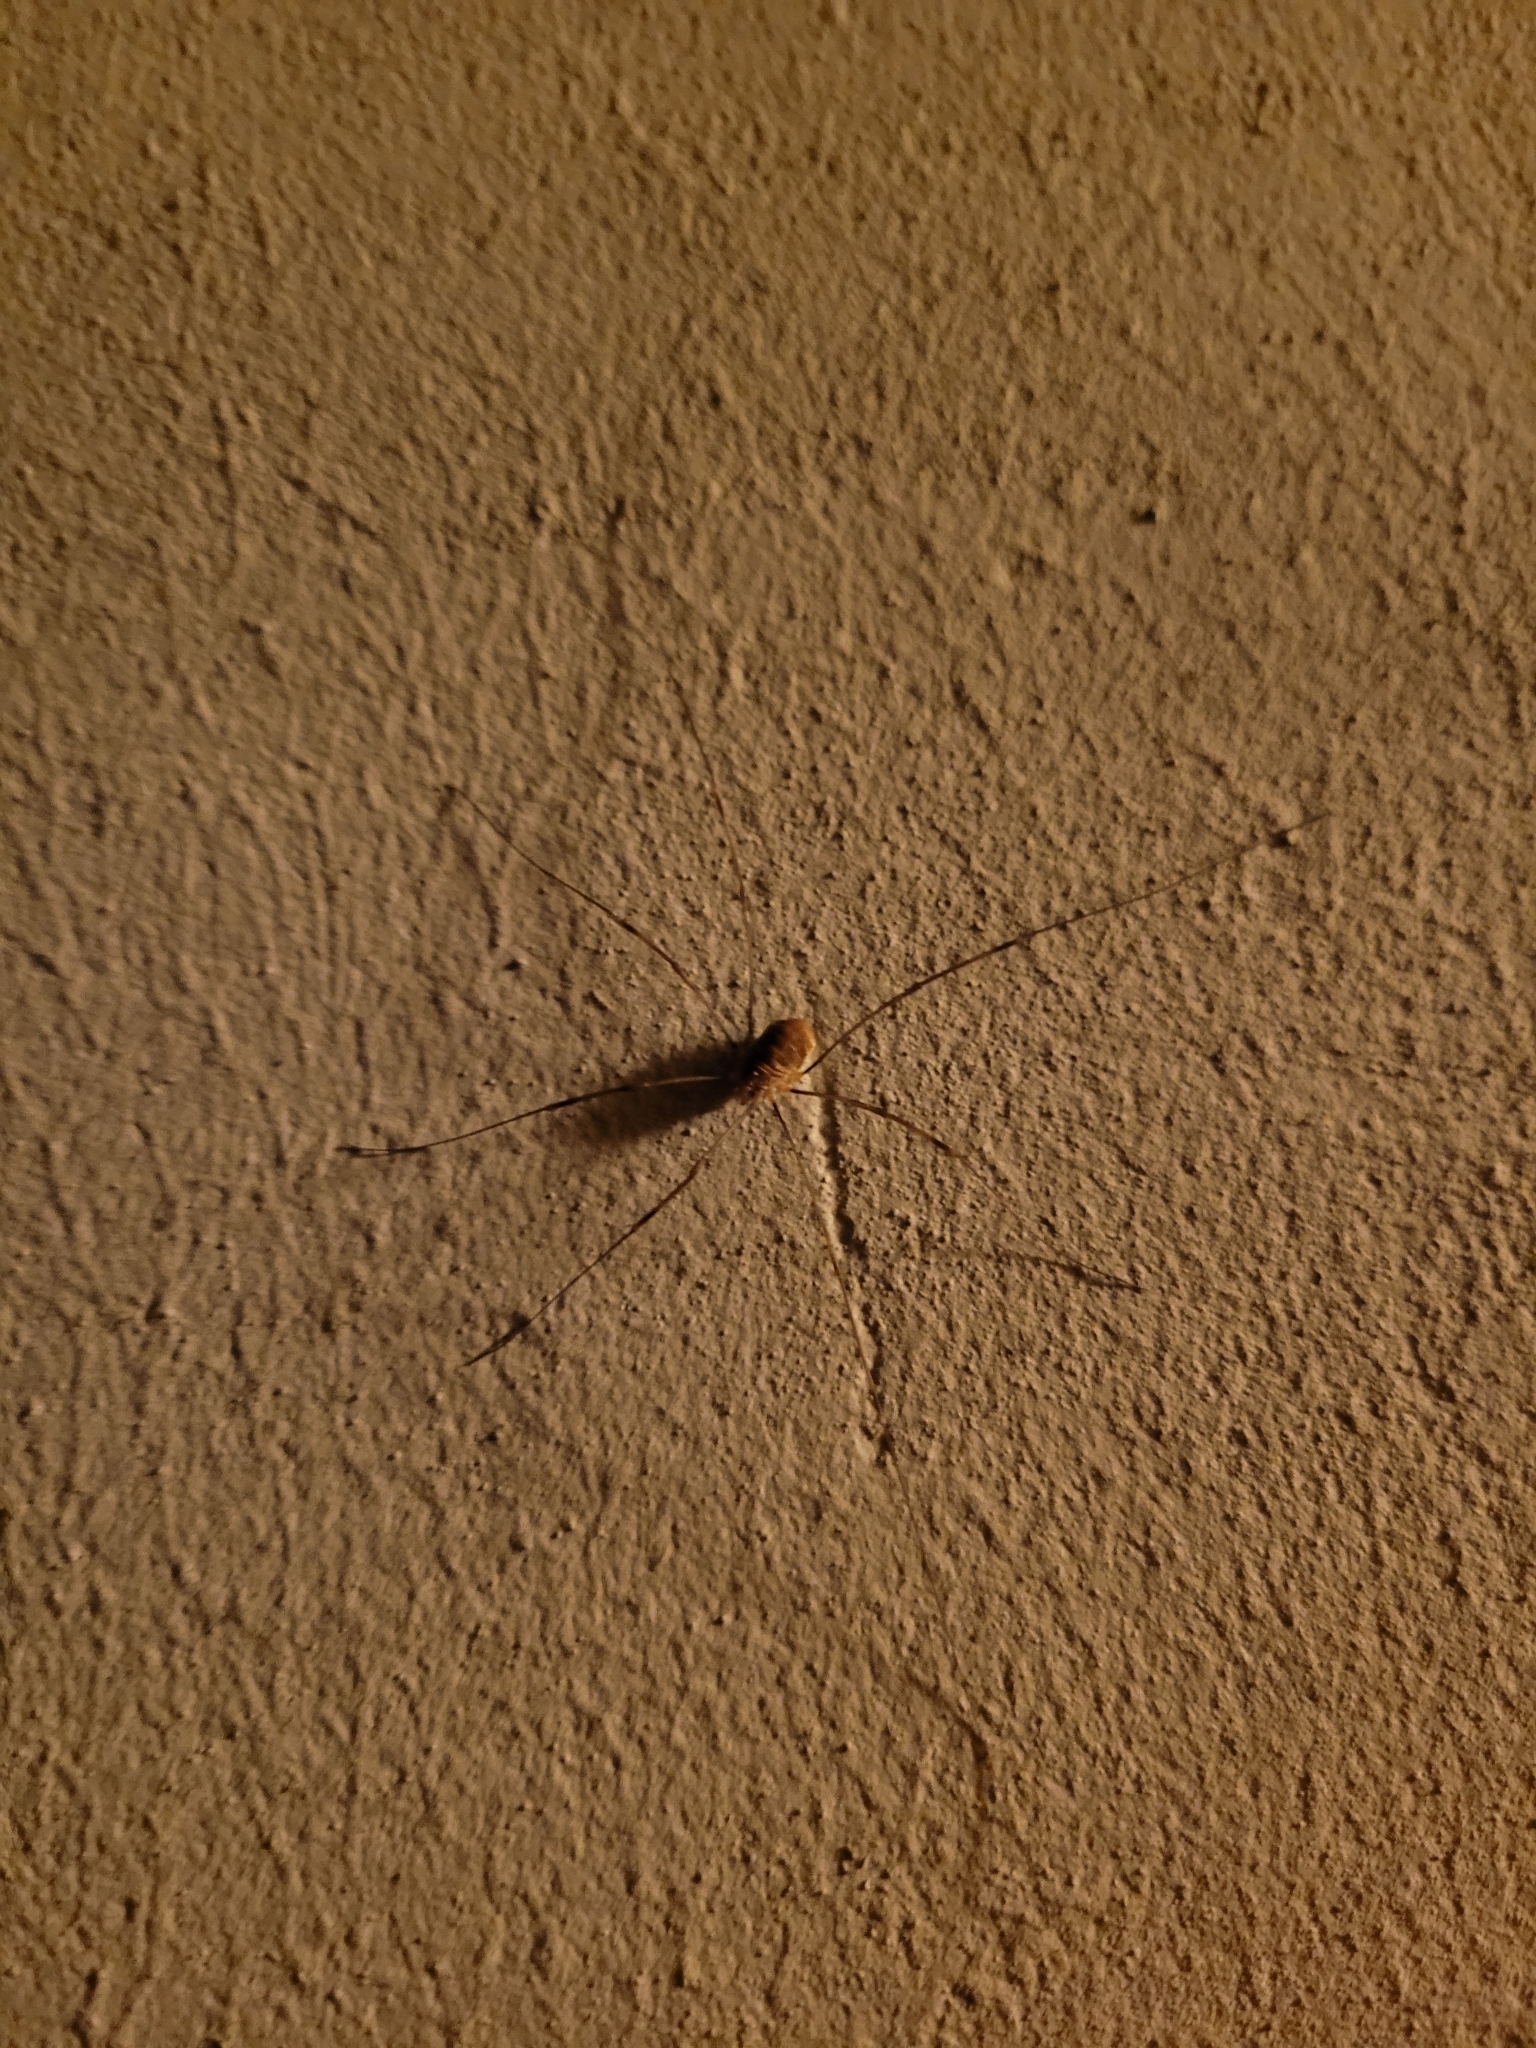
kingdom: Animalia
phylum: Arthropoda
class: Arachnida
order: Opiliones
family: Phalangiidae
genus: Opilio
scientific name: Opilio canestrinii
